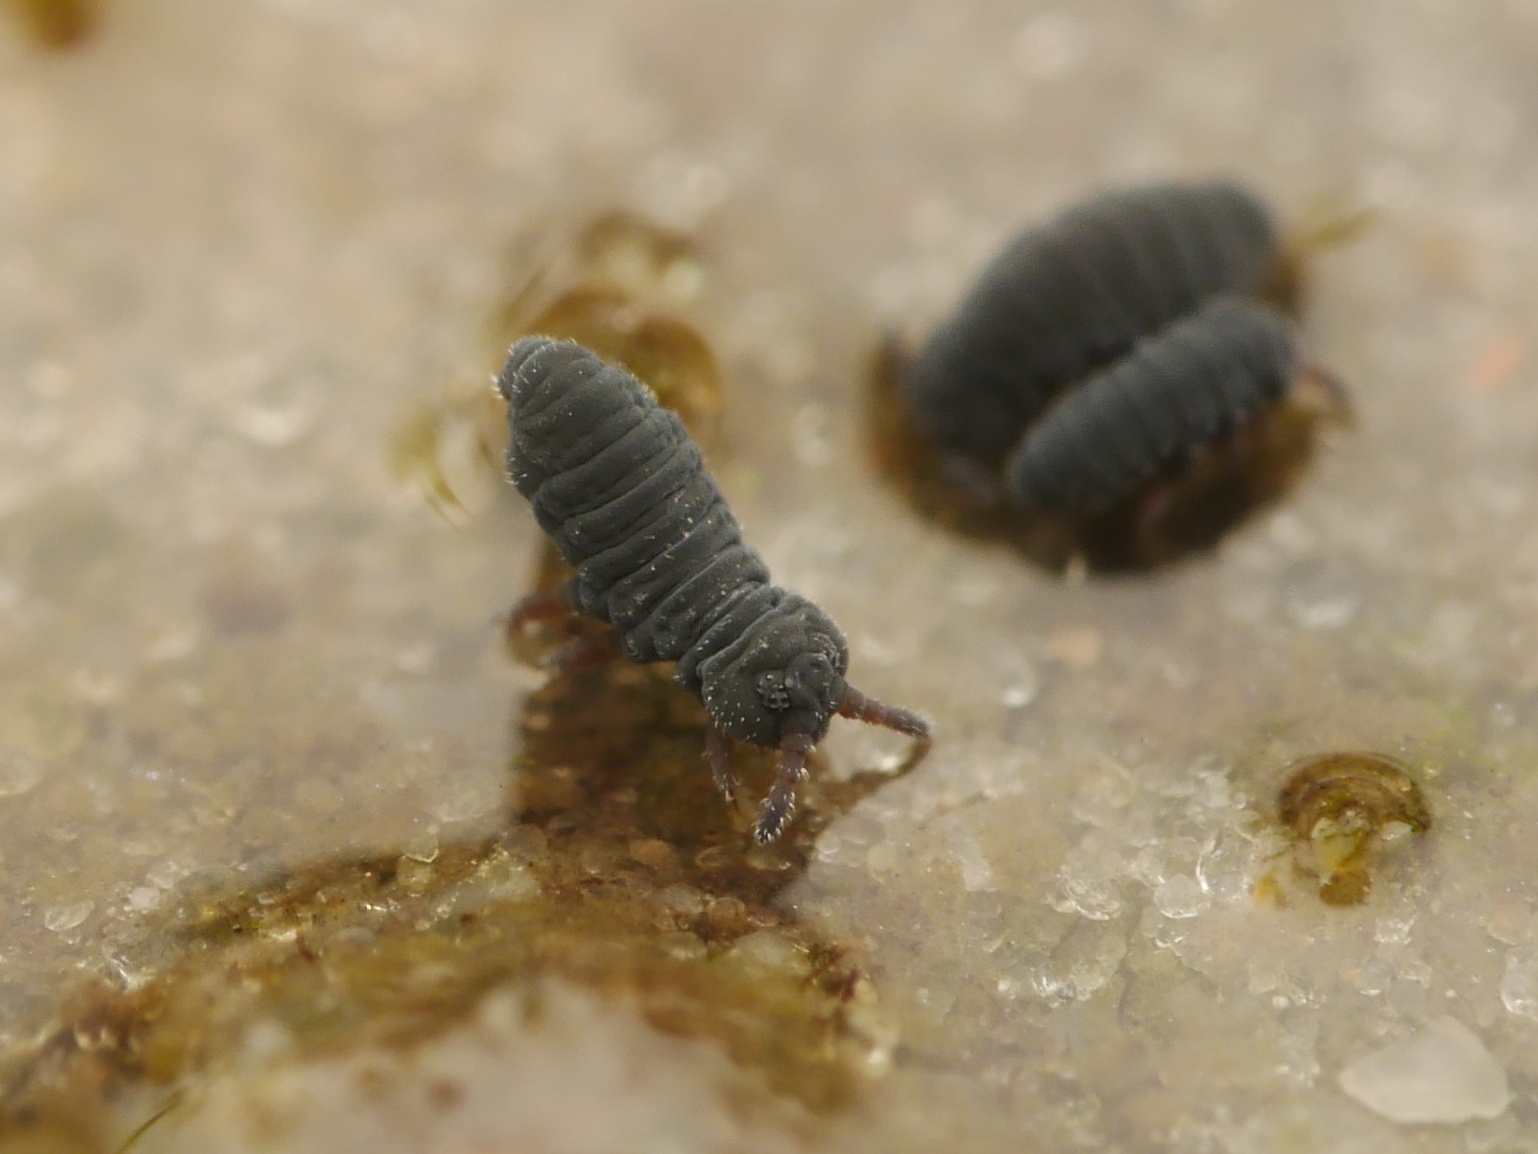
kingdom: Animalia
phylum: Arthropoda
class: Collembola
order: Poduromorpha
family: Poduridae
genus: Podura
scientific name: Podura aquatica
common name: Water springtail
